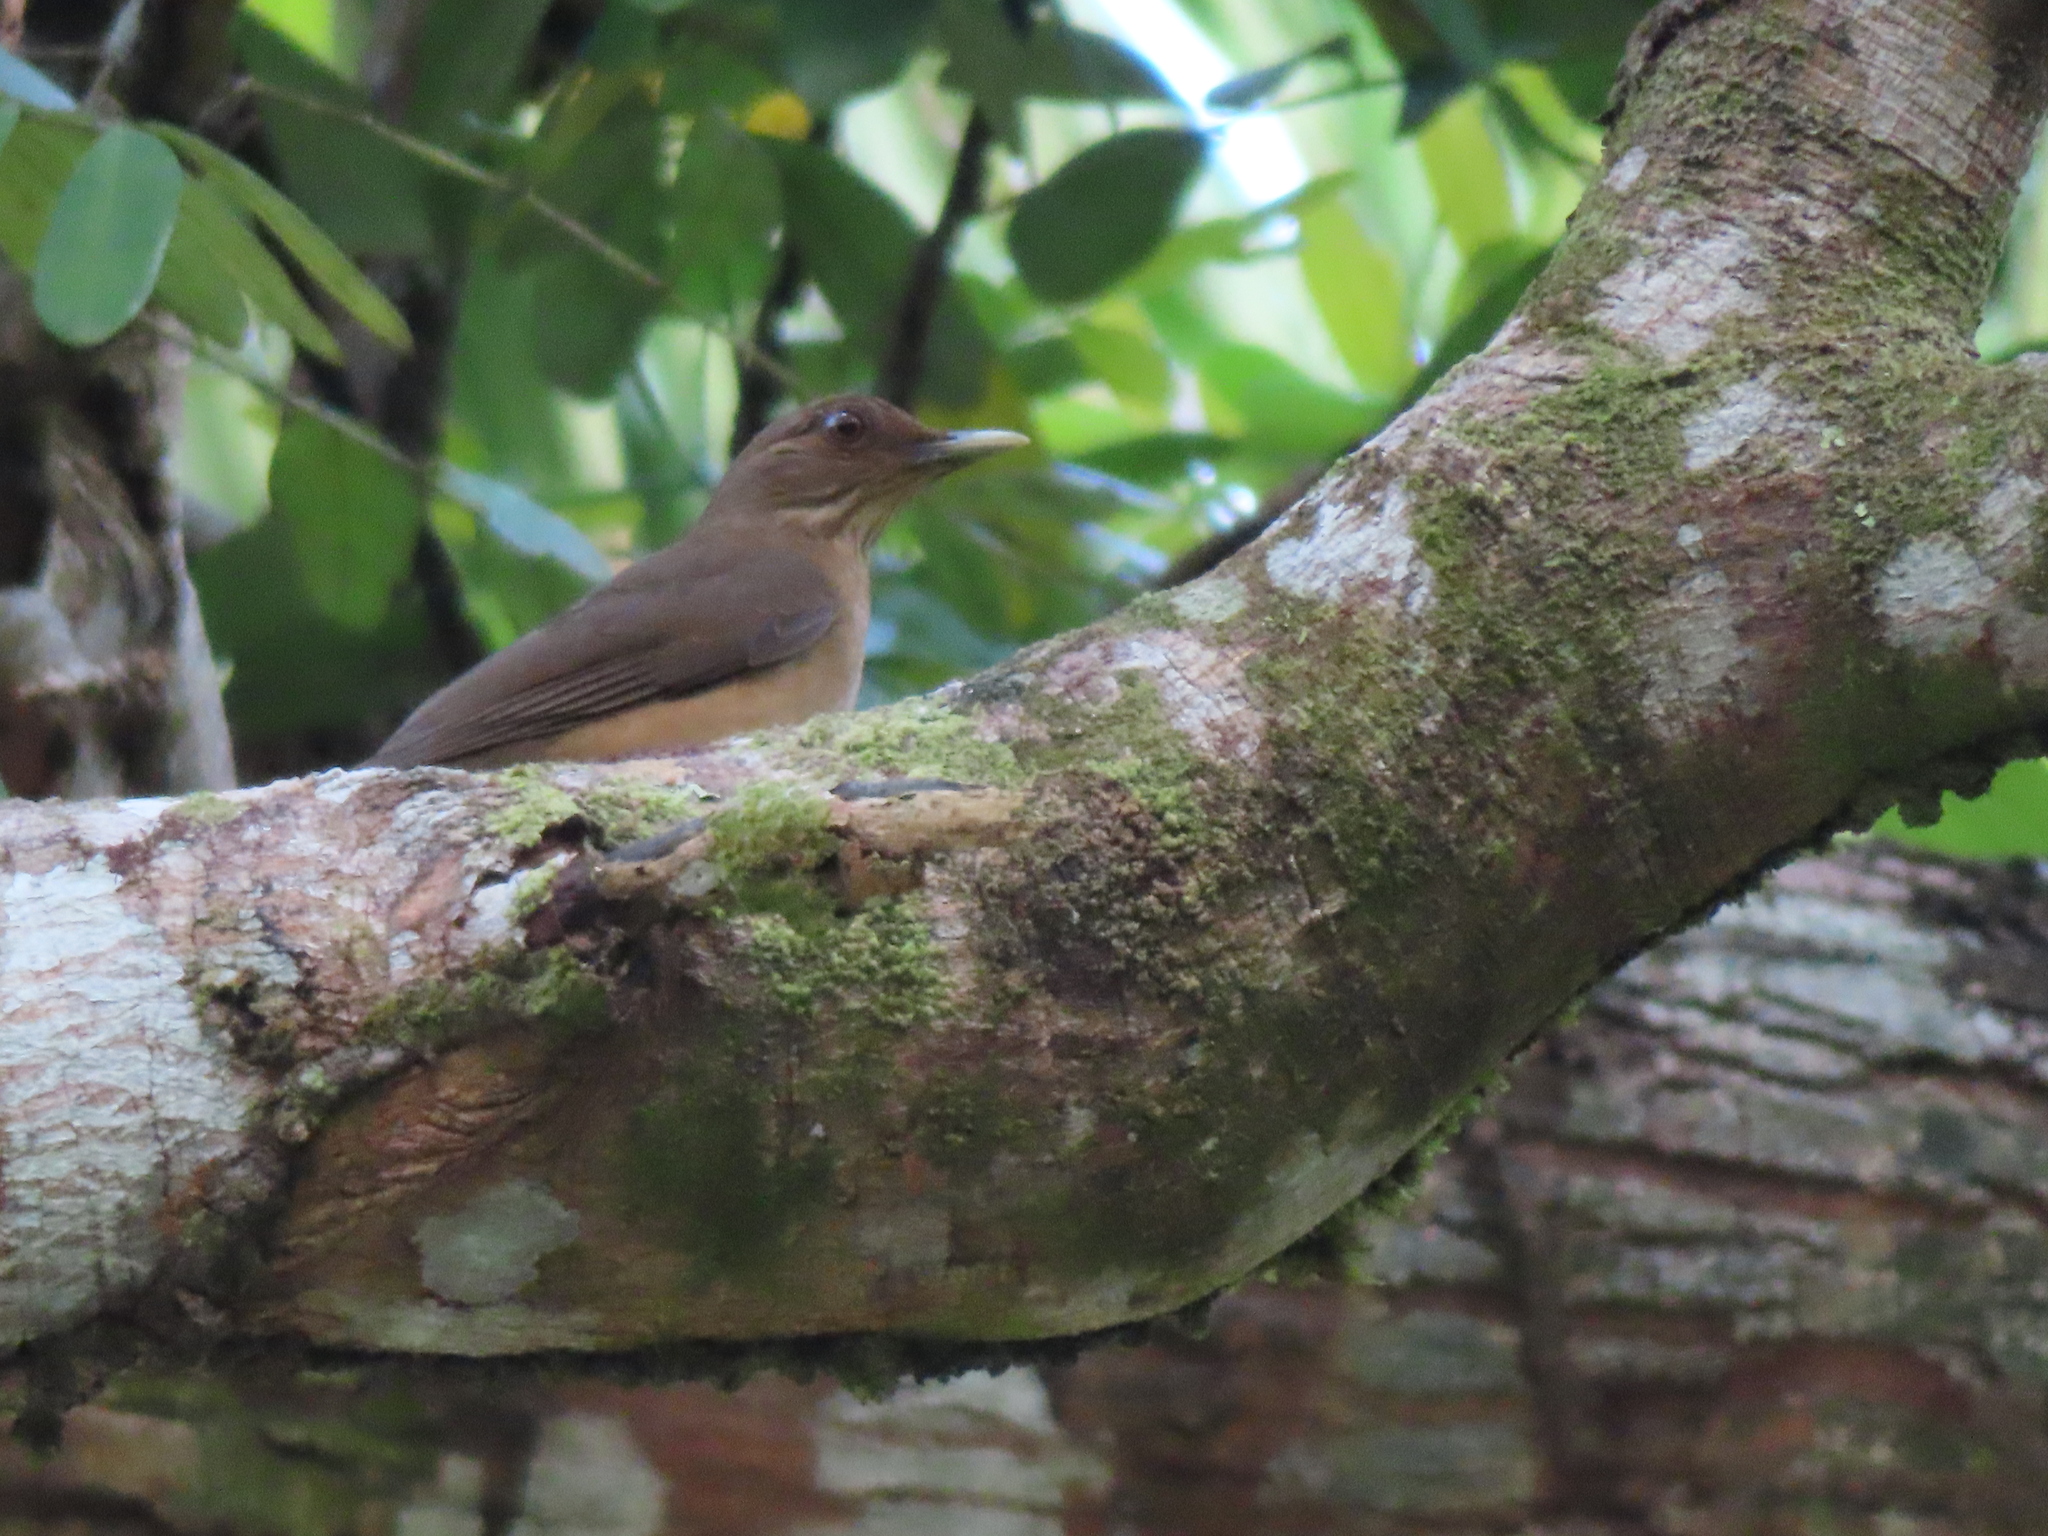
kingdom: Animalia
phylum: Chordata
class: Aves
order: Passeriformes
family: Turdidae
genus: Turdus
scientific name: Turdus grayi
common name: Clay-colored thrush
